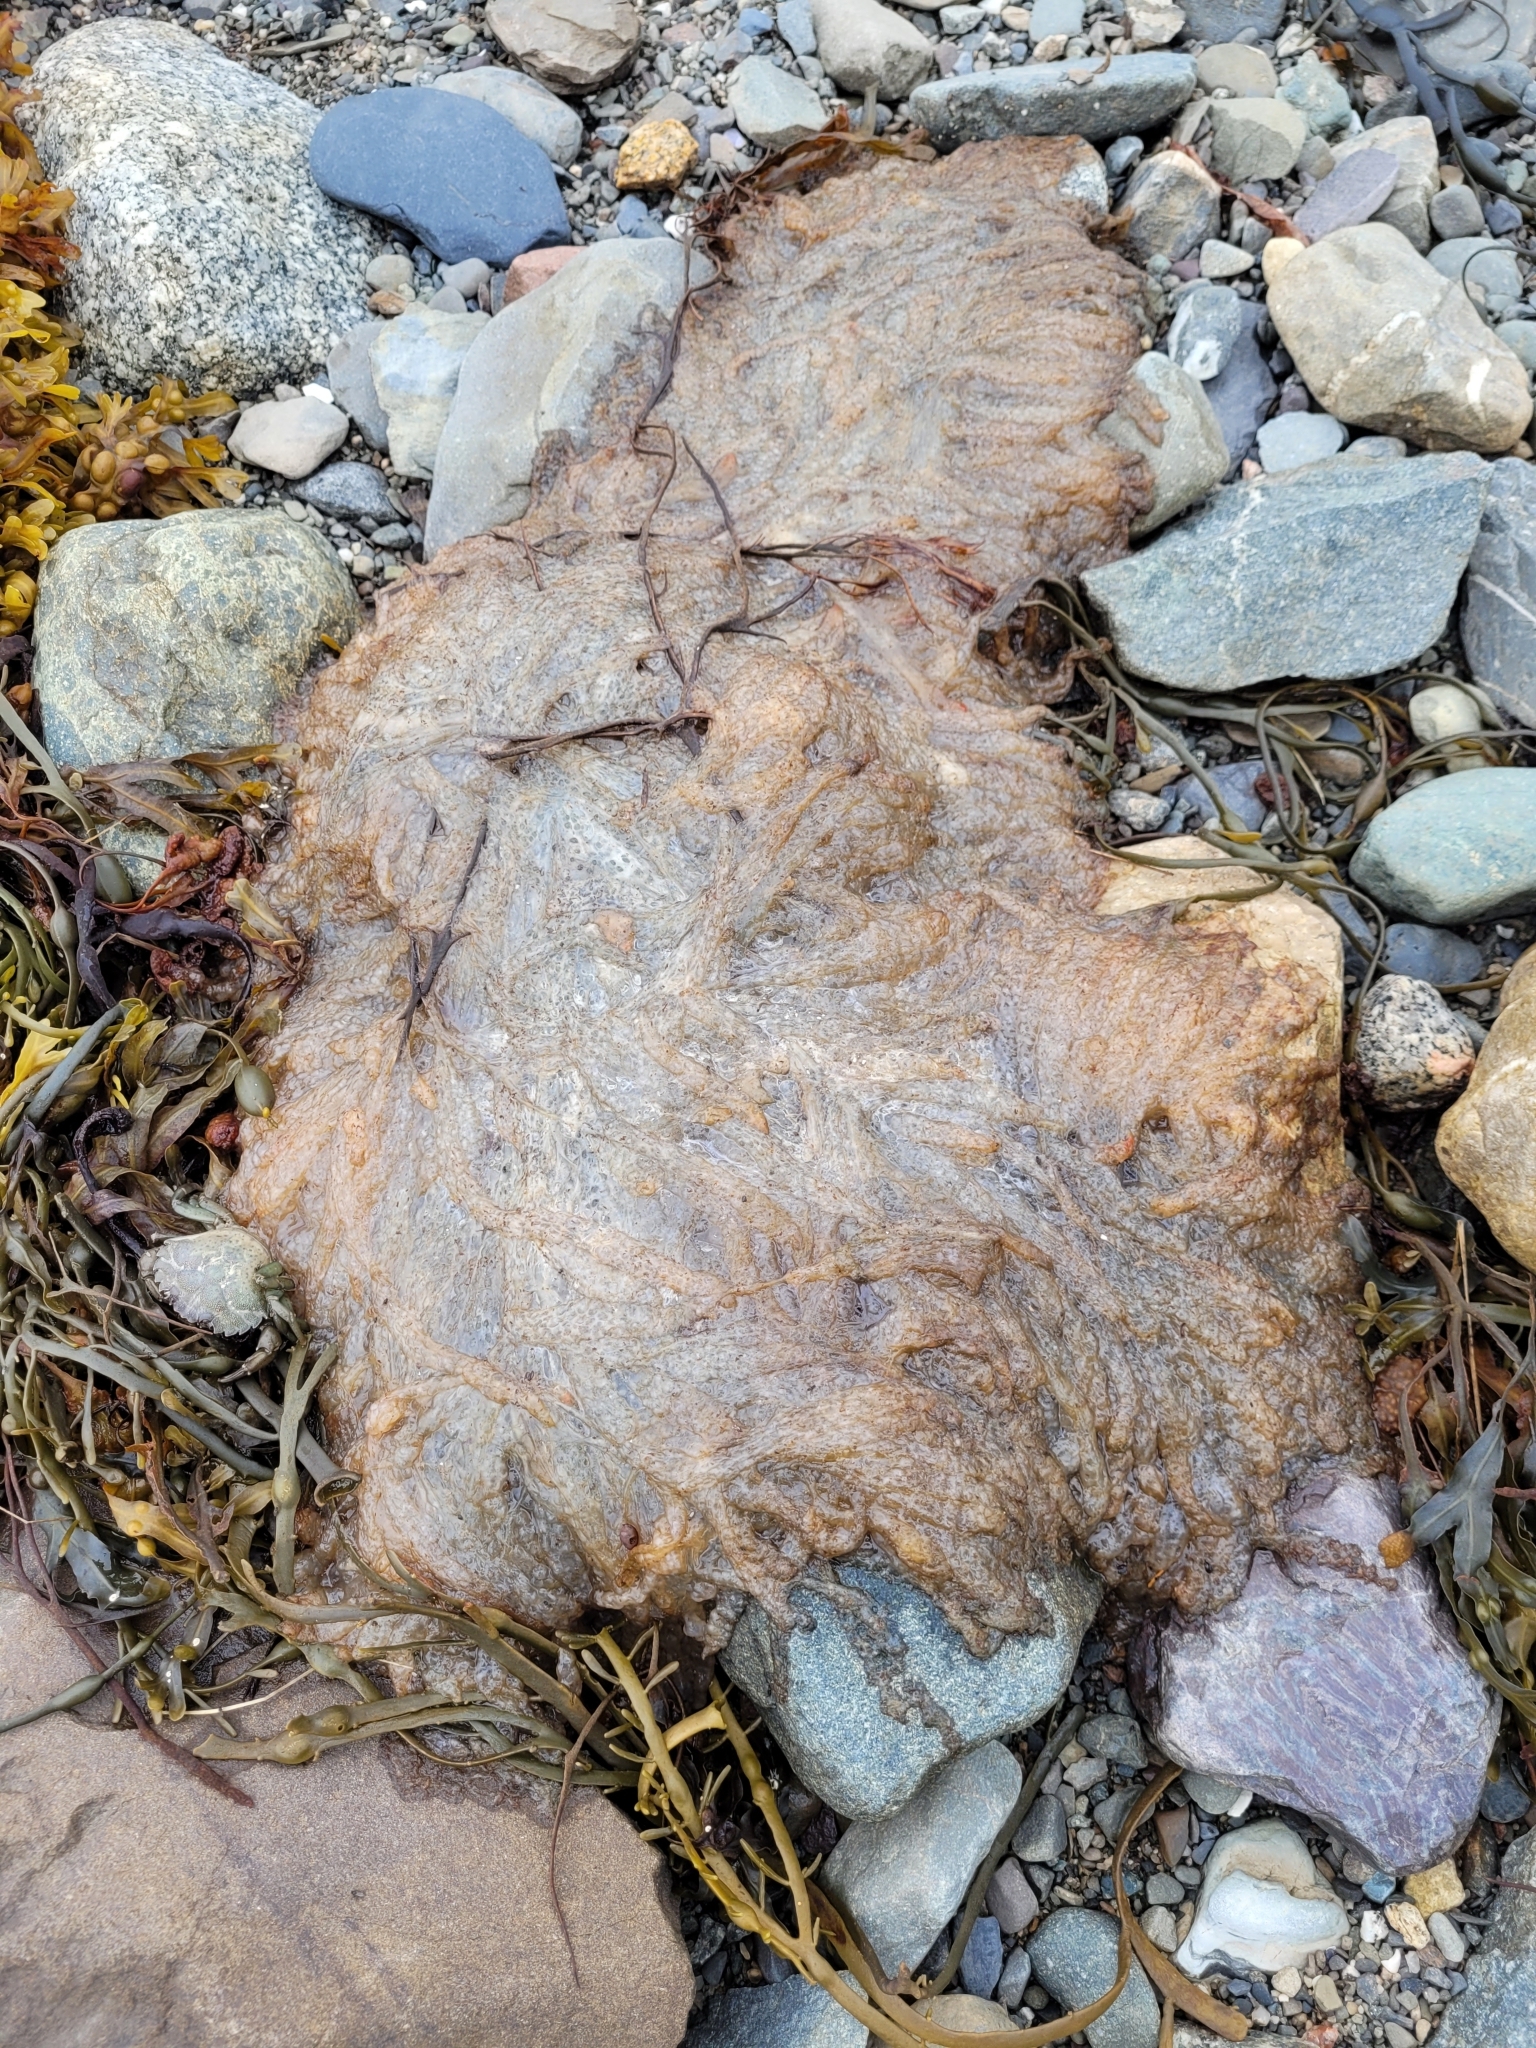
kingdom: Animalia
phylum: Mollusca
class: Cephalopoda
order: Myopsida
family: Loliginidae
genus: Doryteuthis
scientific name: Doryteuthis pealeii
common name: Long-finned inshore squid
